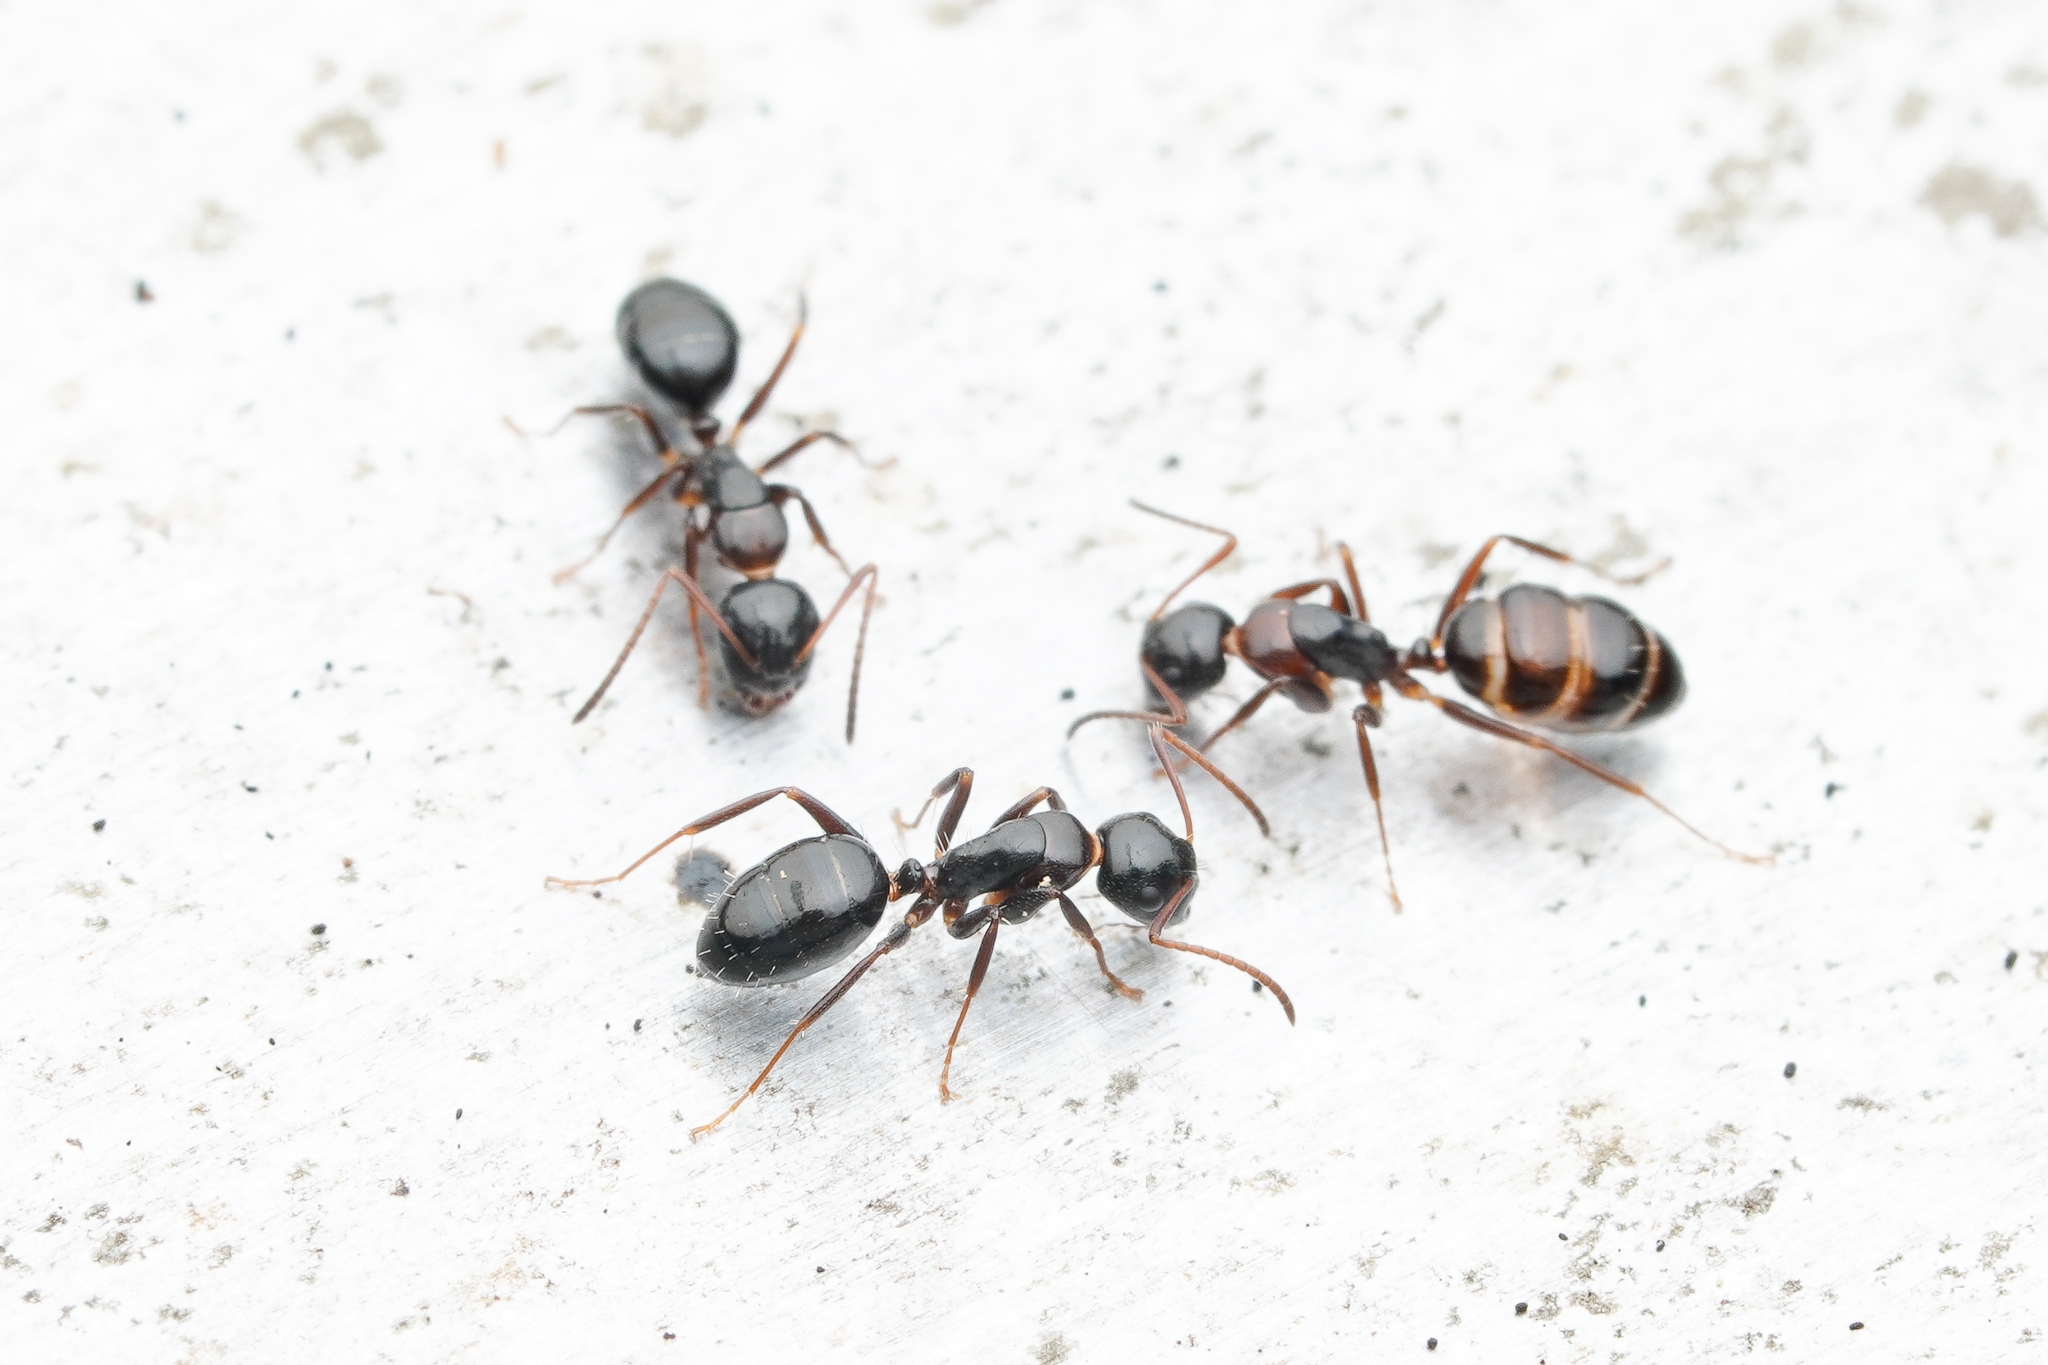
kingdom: Animalia
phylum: Arthropoda
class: Insecta
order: Hymenoptera
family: Formicidae
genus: Camponotus
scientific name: Camponotus vitiosus
